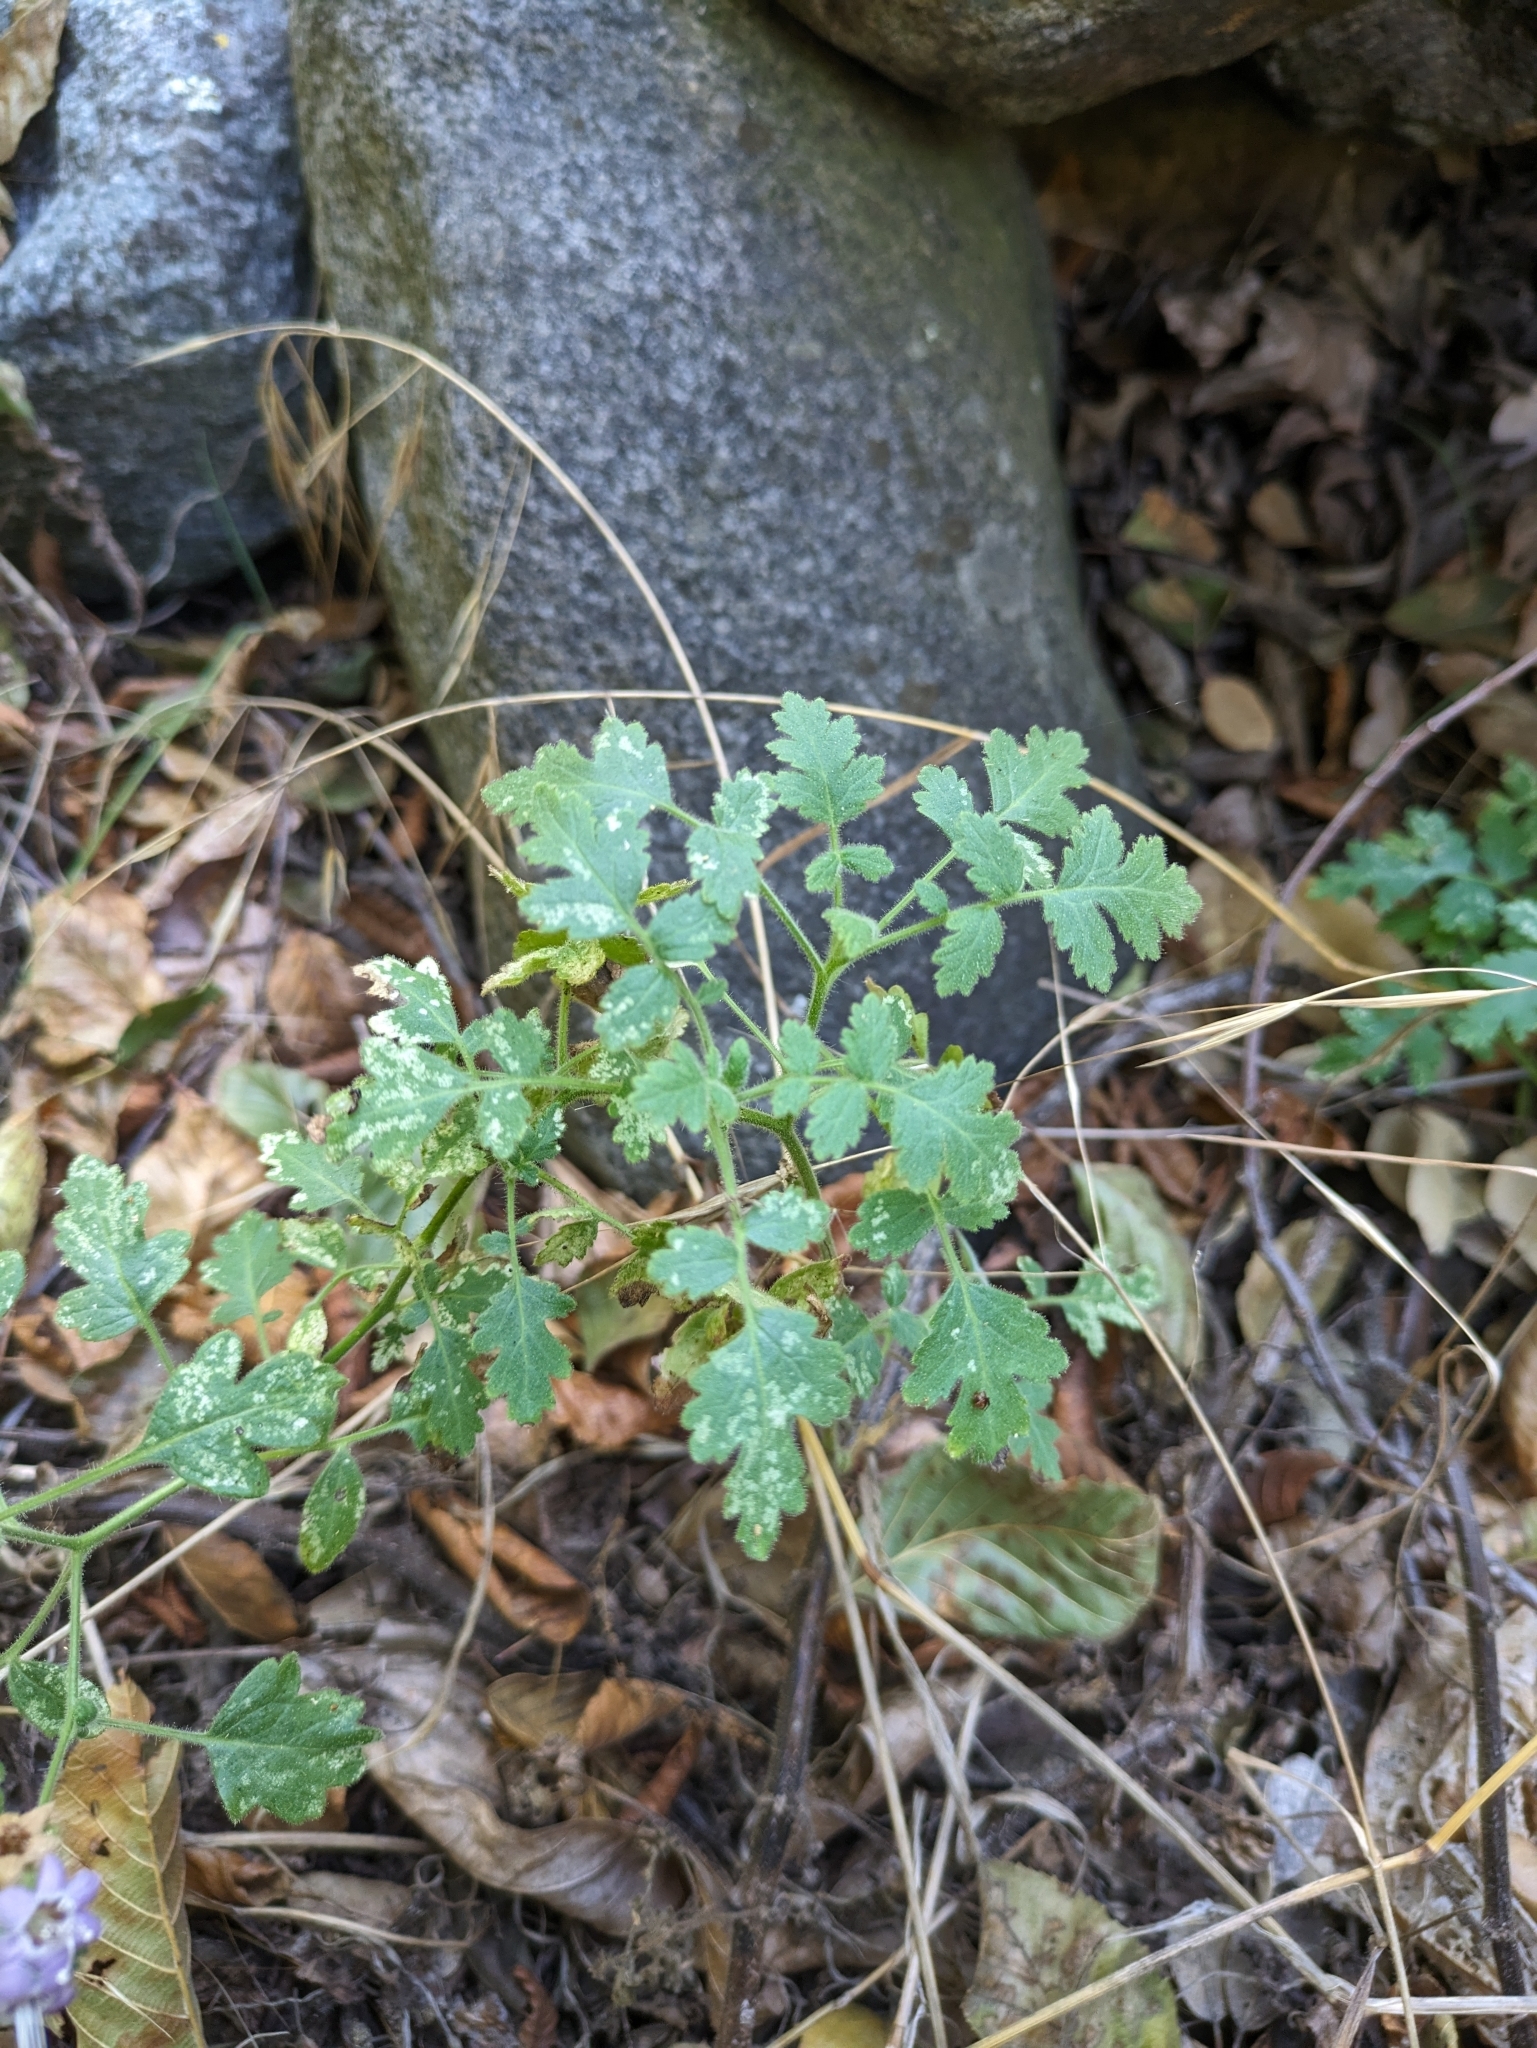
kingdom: Plantae
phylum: Tracheophyta
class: Magnoliopsida
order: Boraginales
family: Hydrophyllaceae
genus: Phacelia
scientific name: Phacelia ramosissima
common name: Branching phacelia
